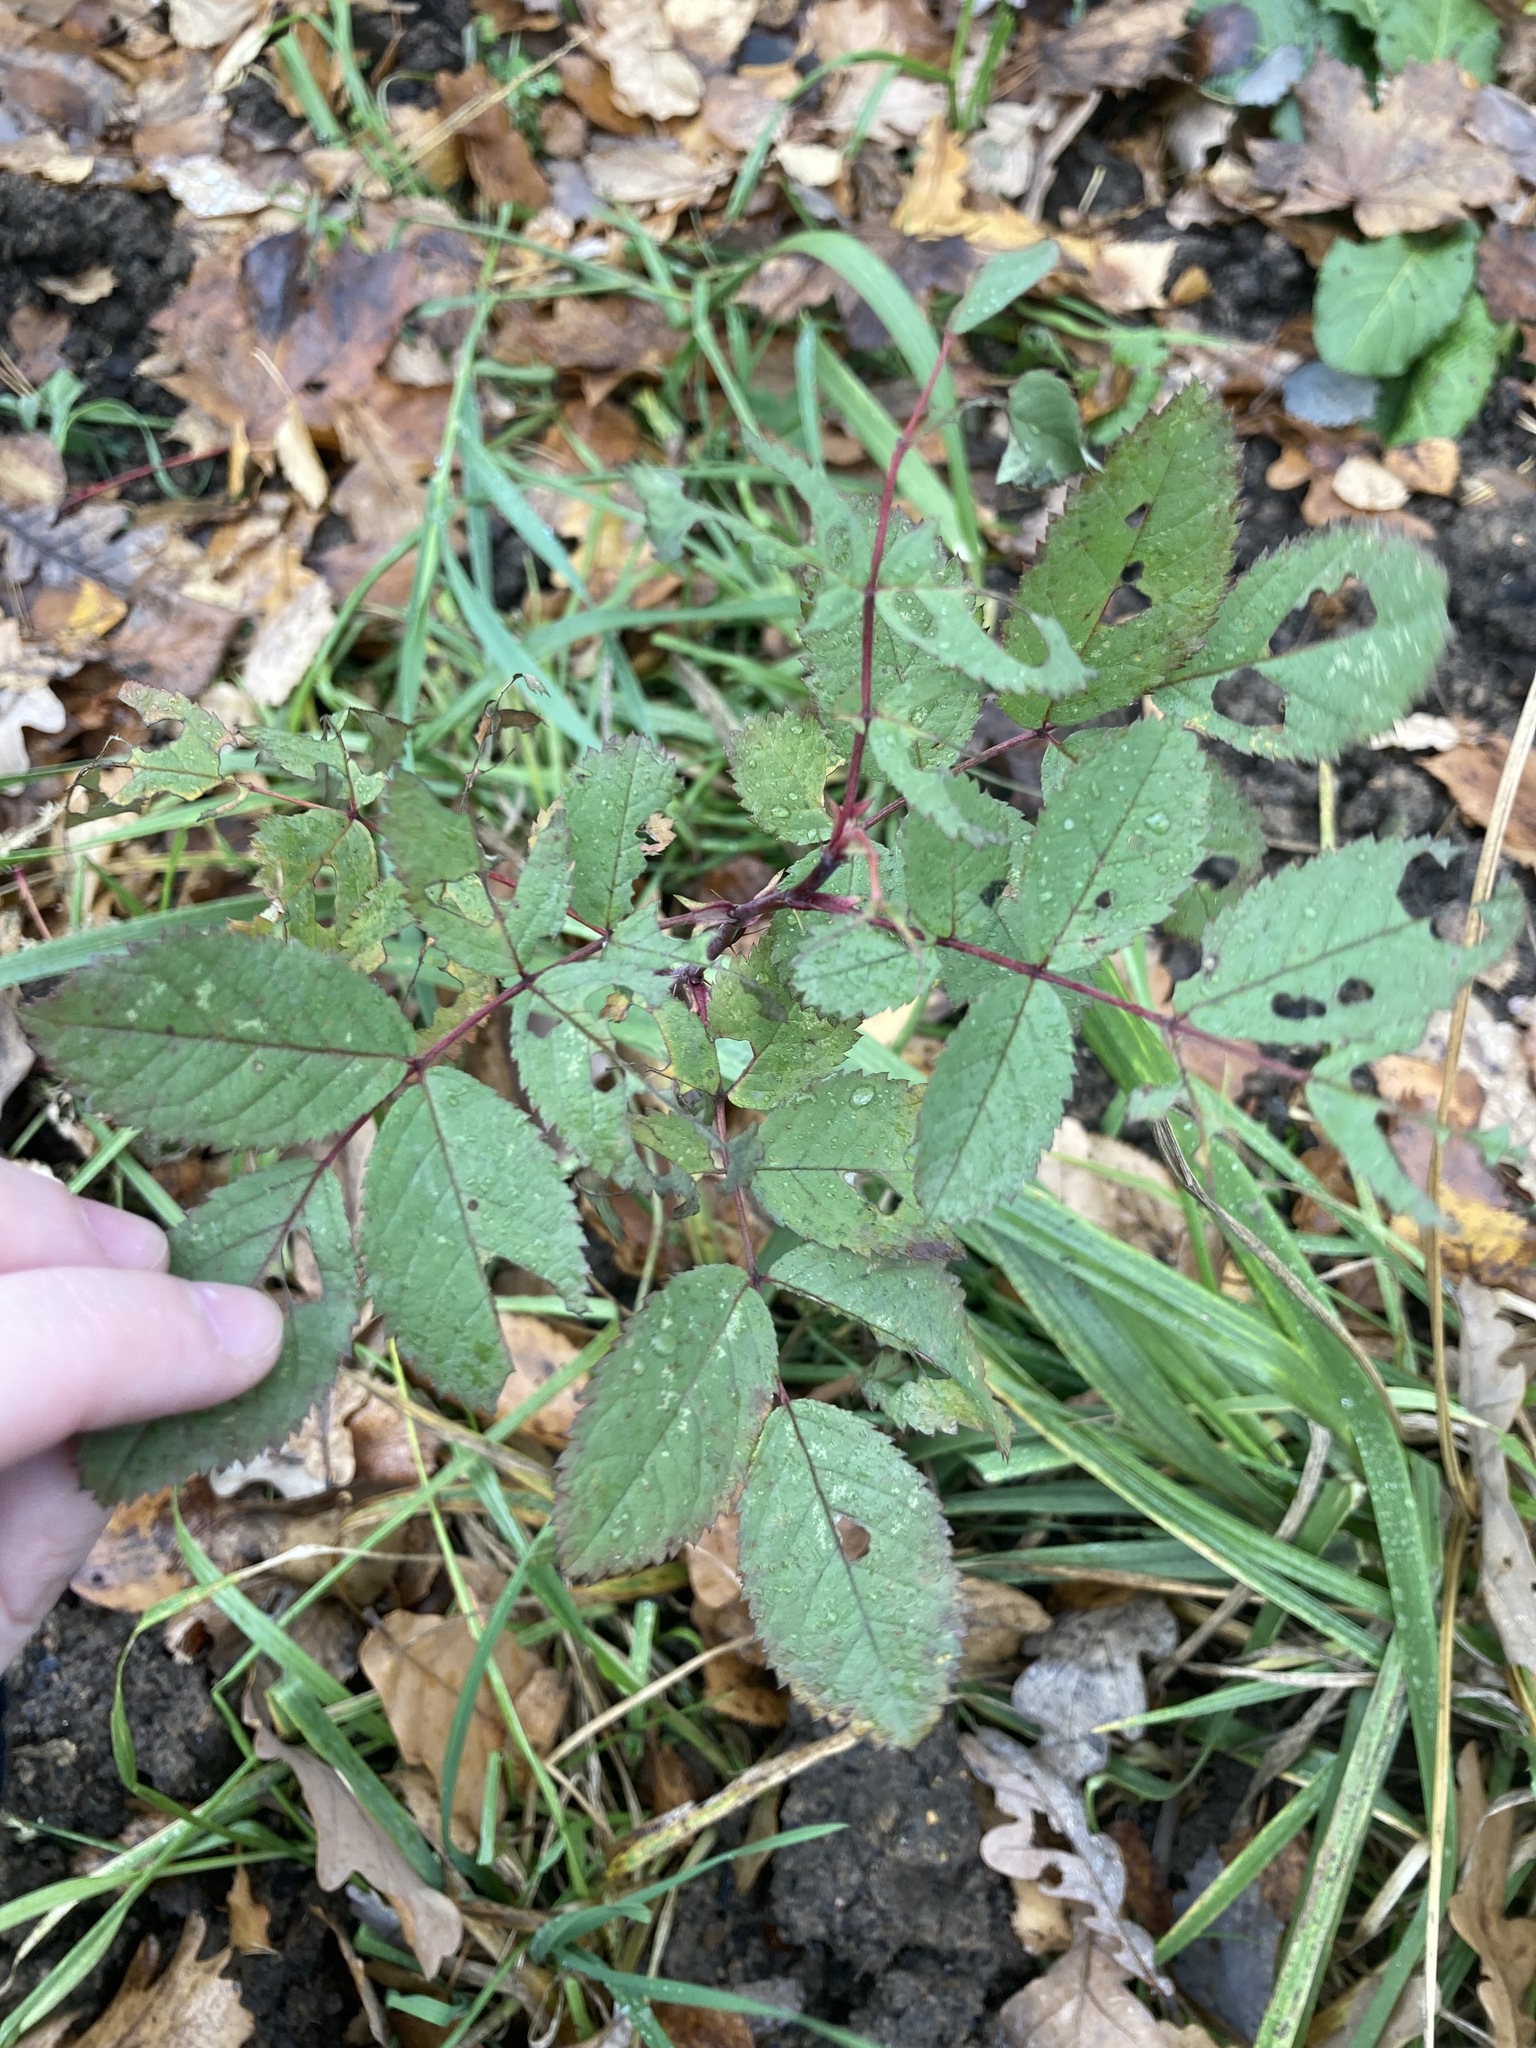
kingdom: Plantae
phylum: Tracheophyta
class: Magnoliopsida
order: Rosales
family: Rosaceae
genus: Rosa
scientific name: Rosa majalis
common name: Cinnamon rose
